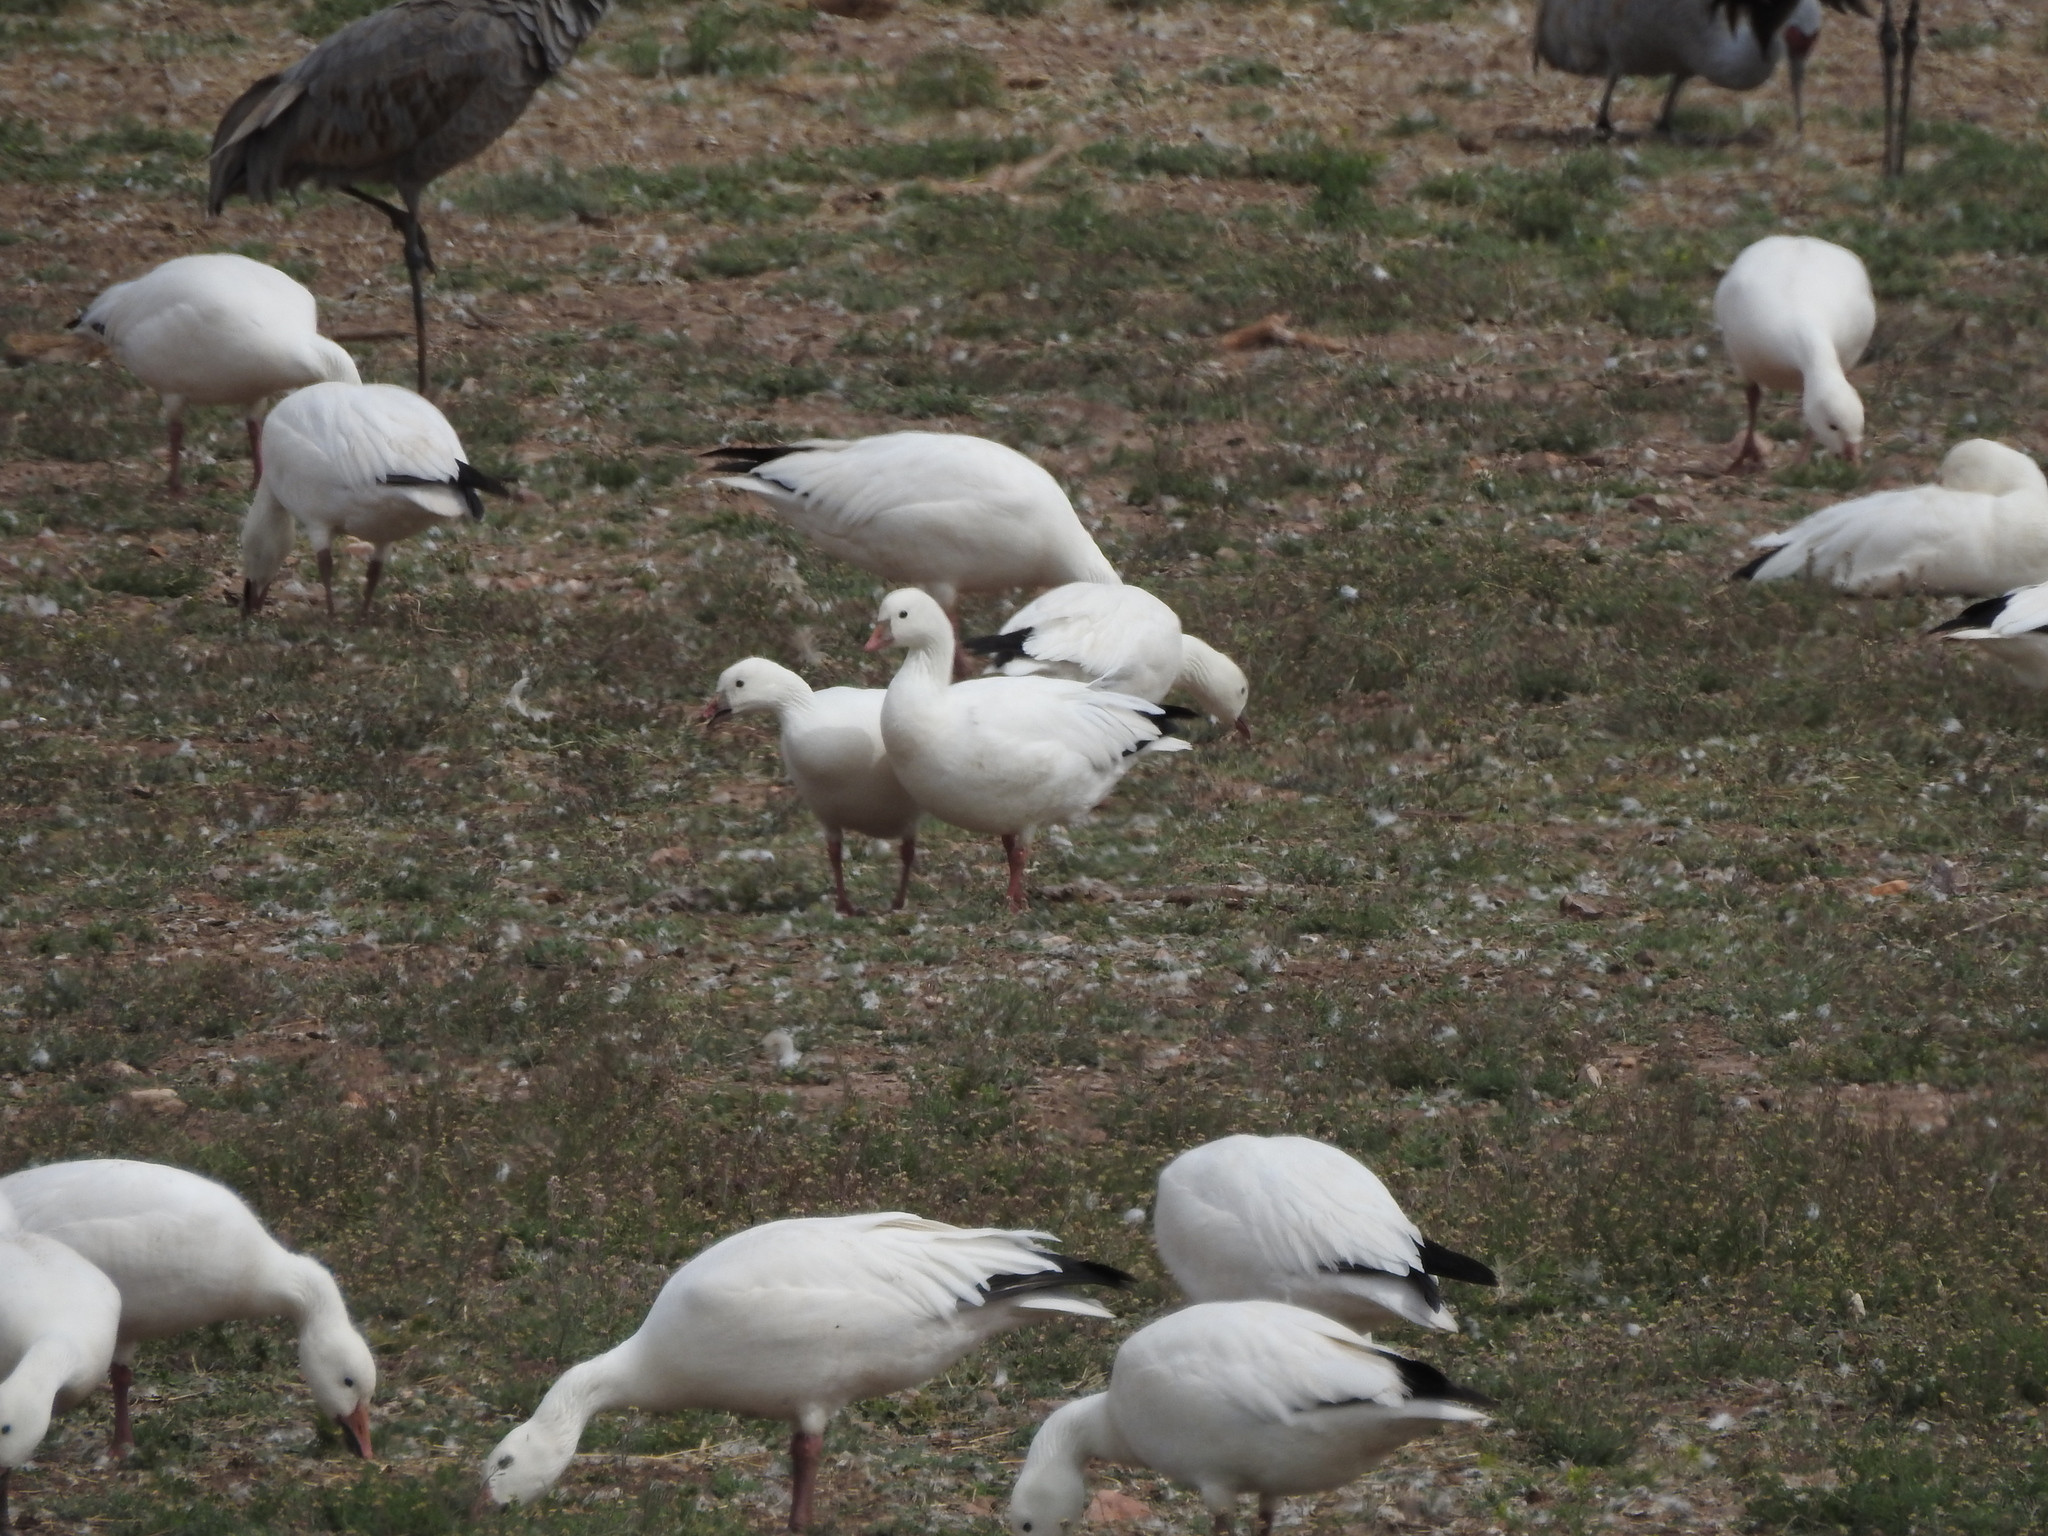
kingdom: Animalia
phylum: Chordata
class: Aves
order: Anseriformes
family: Anatidae
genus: Anser
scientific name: Anser rossii
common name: Ross's goose
